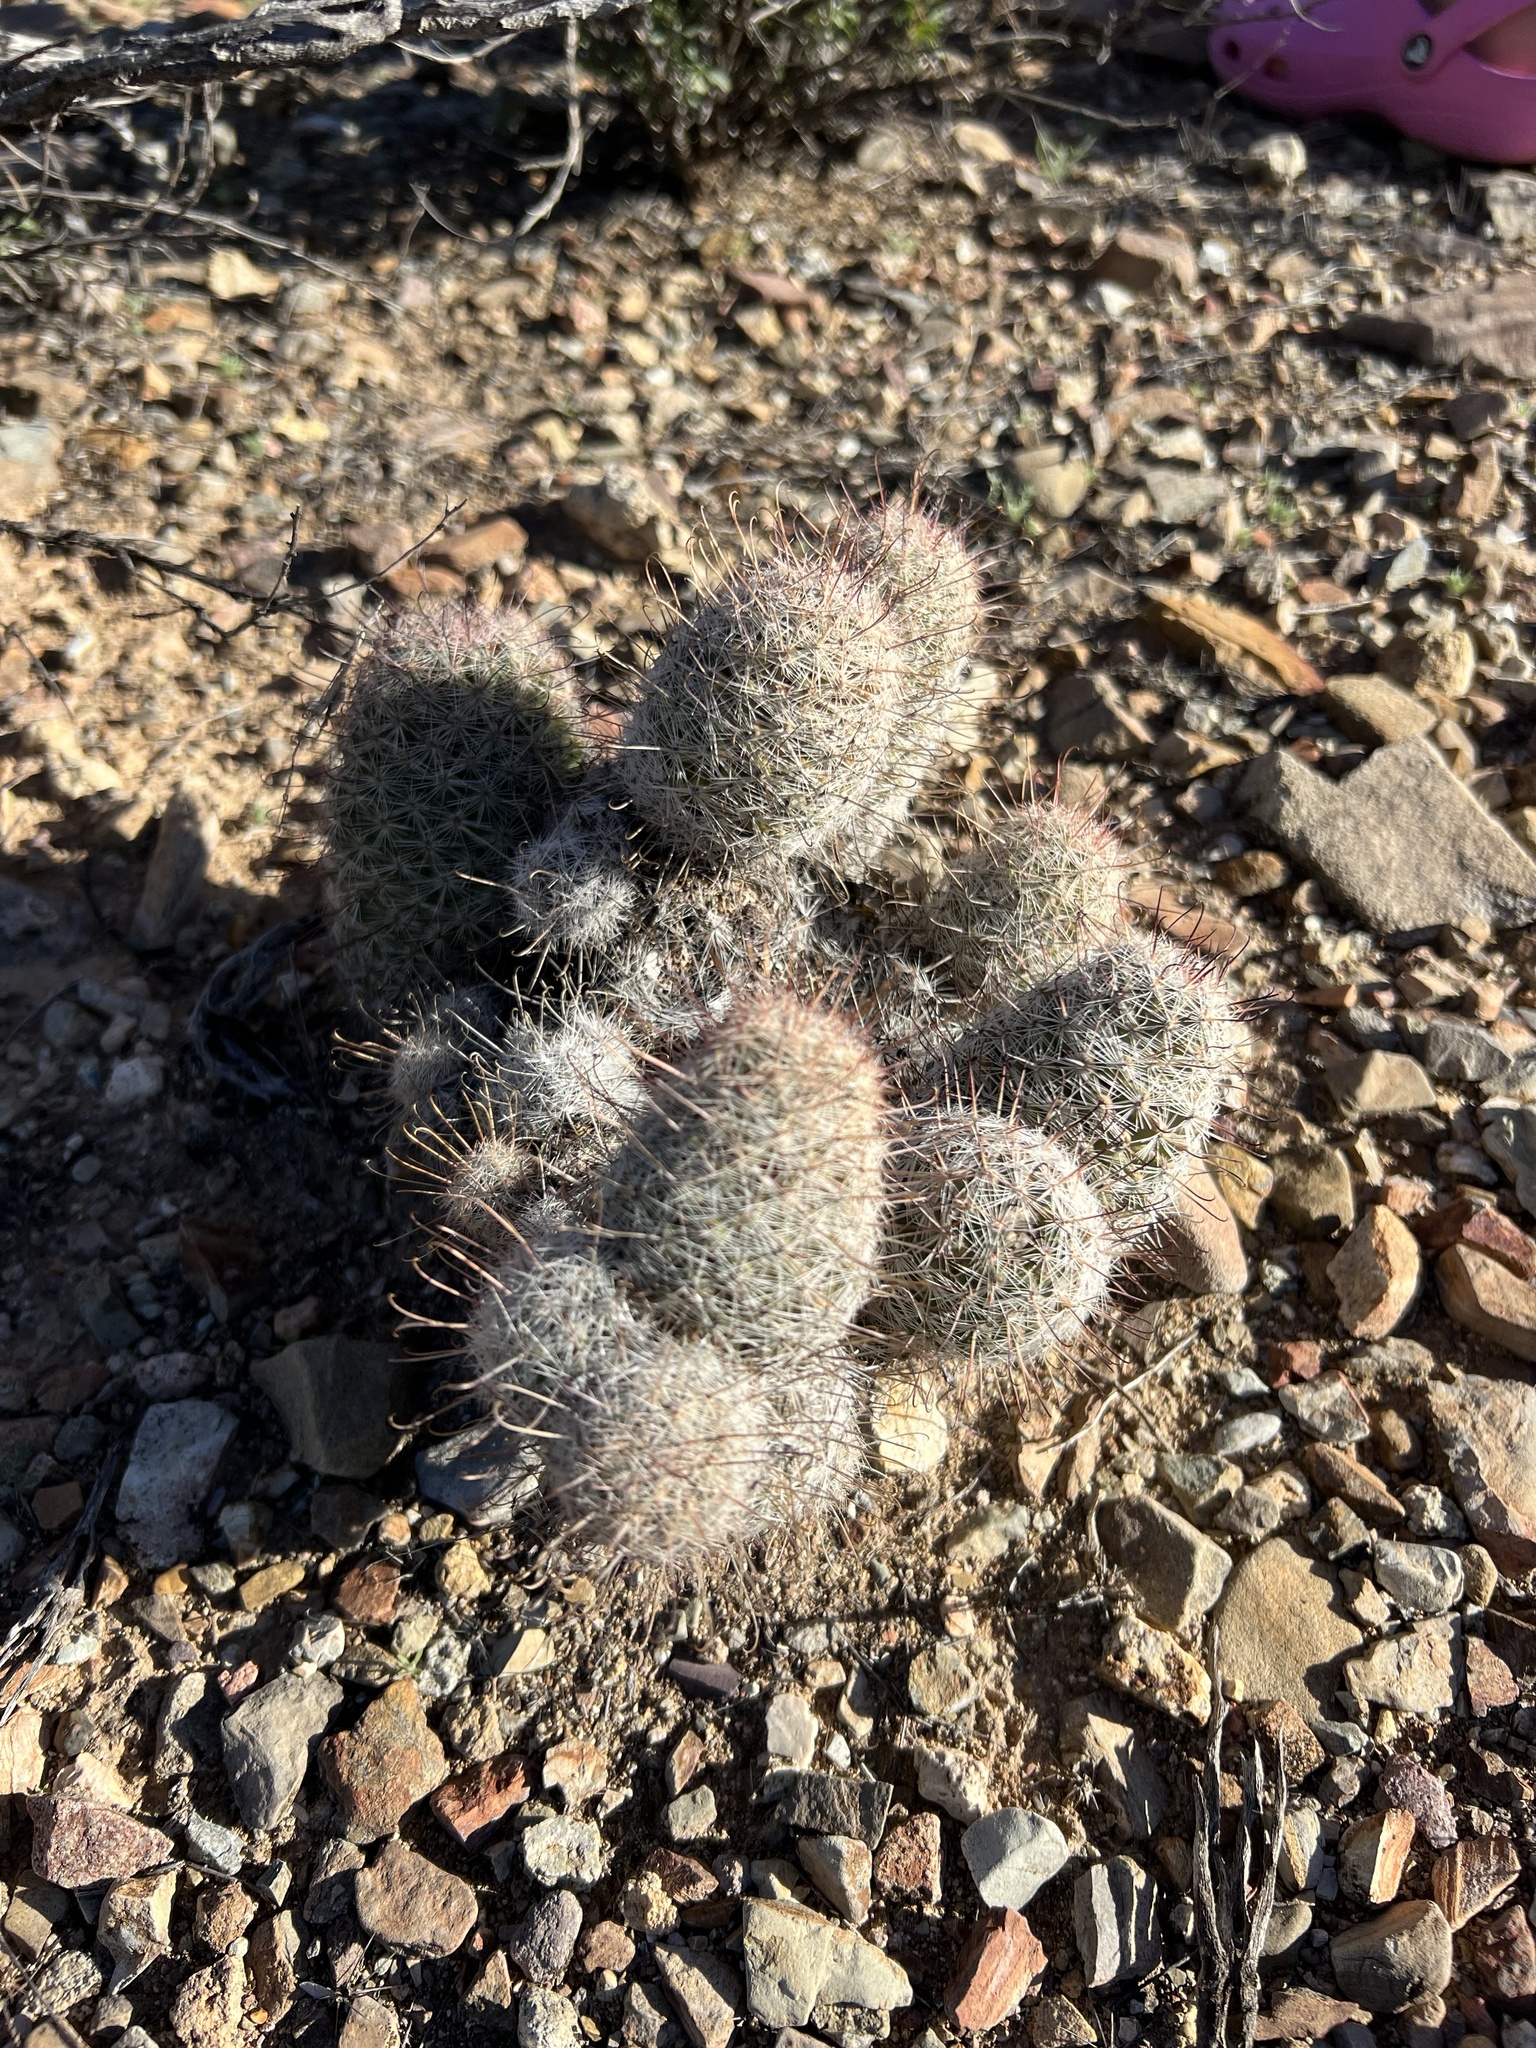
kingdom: Plantae
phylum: Tracheophyta
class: Magnoliopsida
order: Caryophyllales
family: Cactaceae
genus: Cochemiea
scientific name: Cochemiea grahamii
